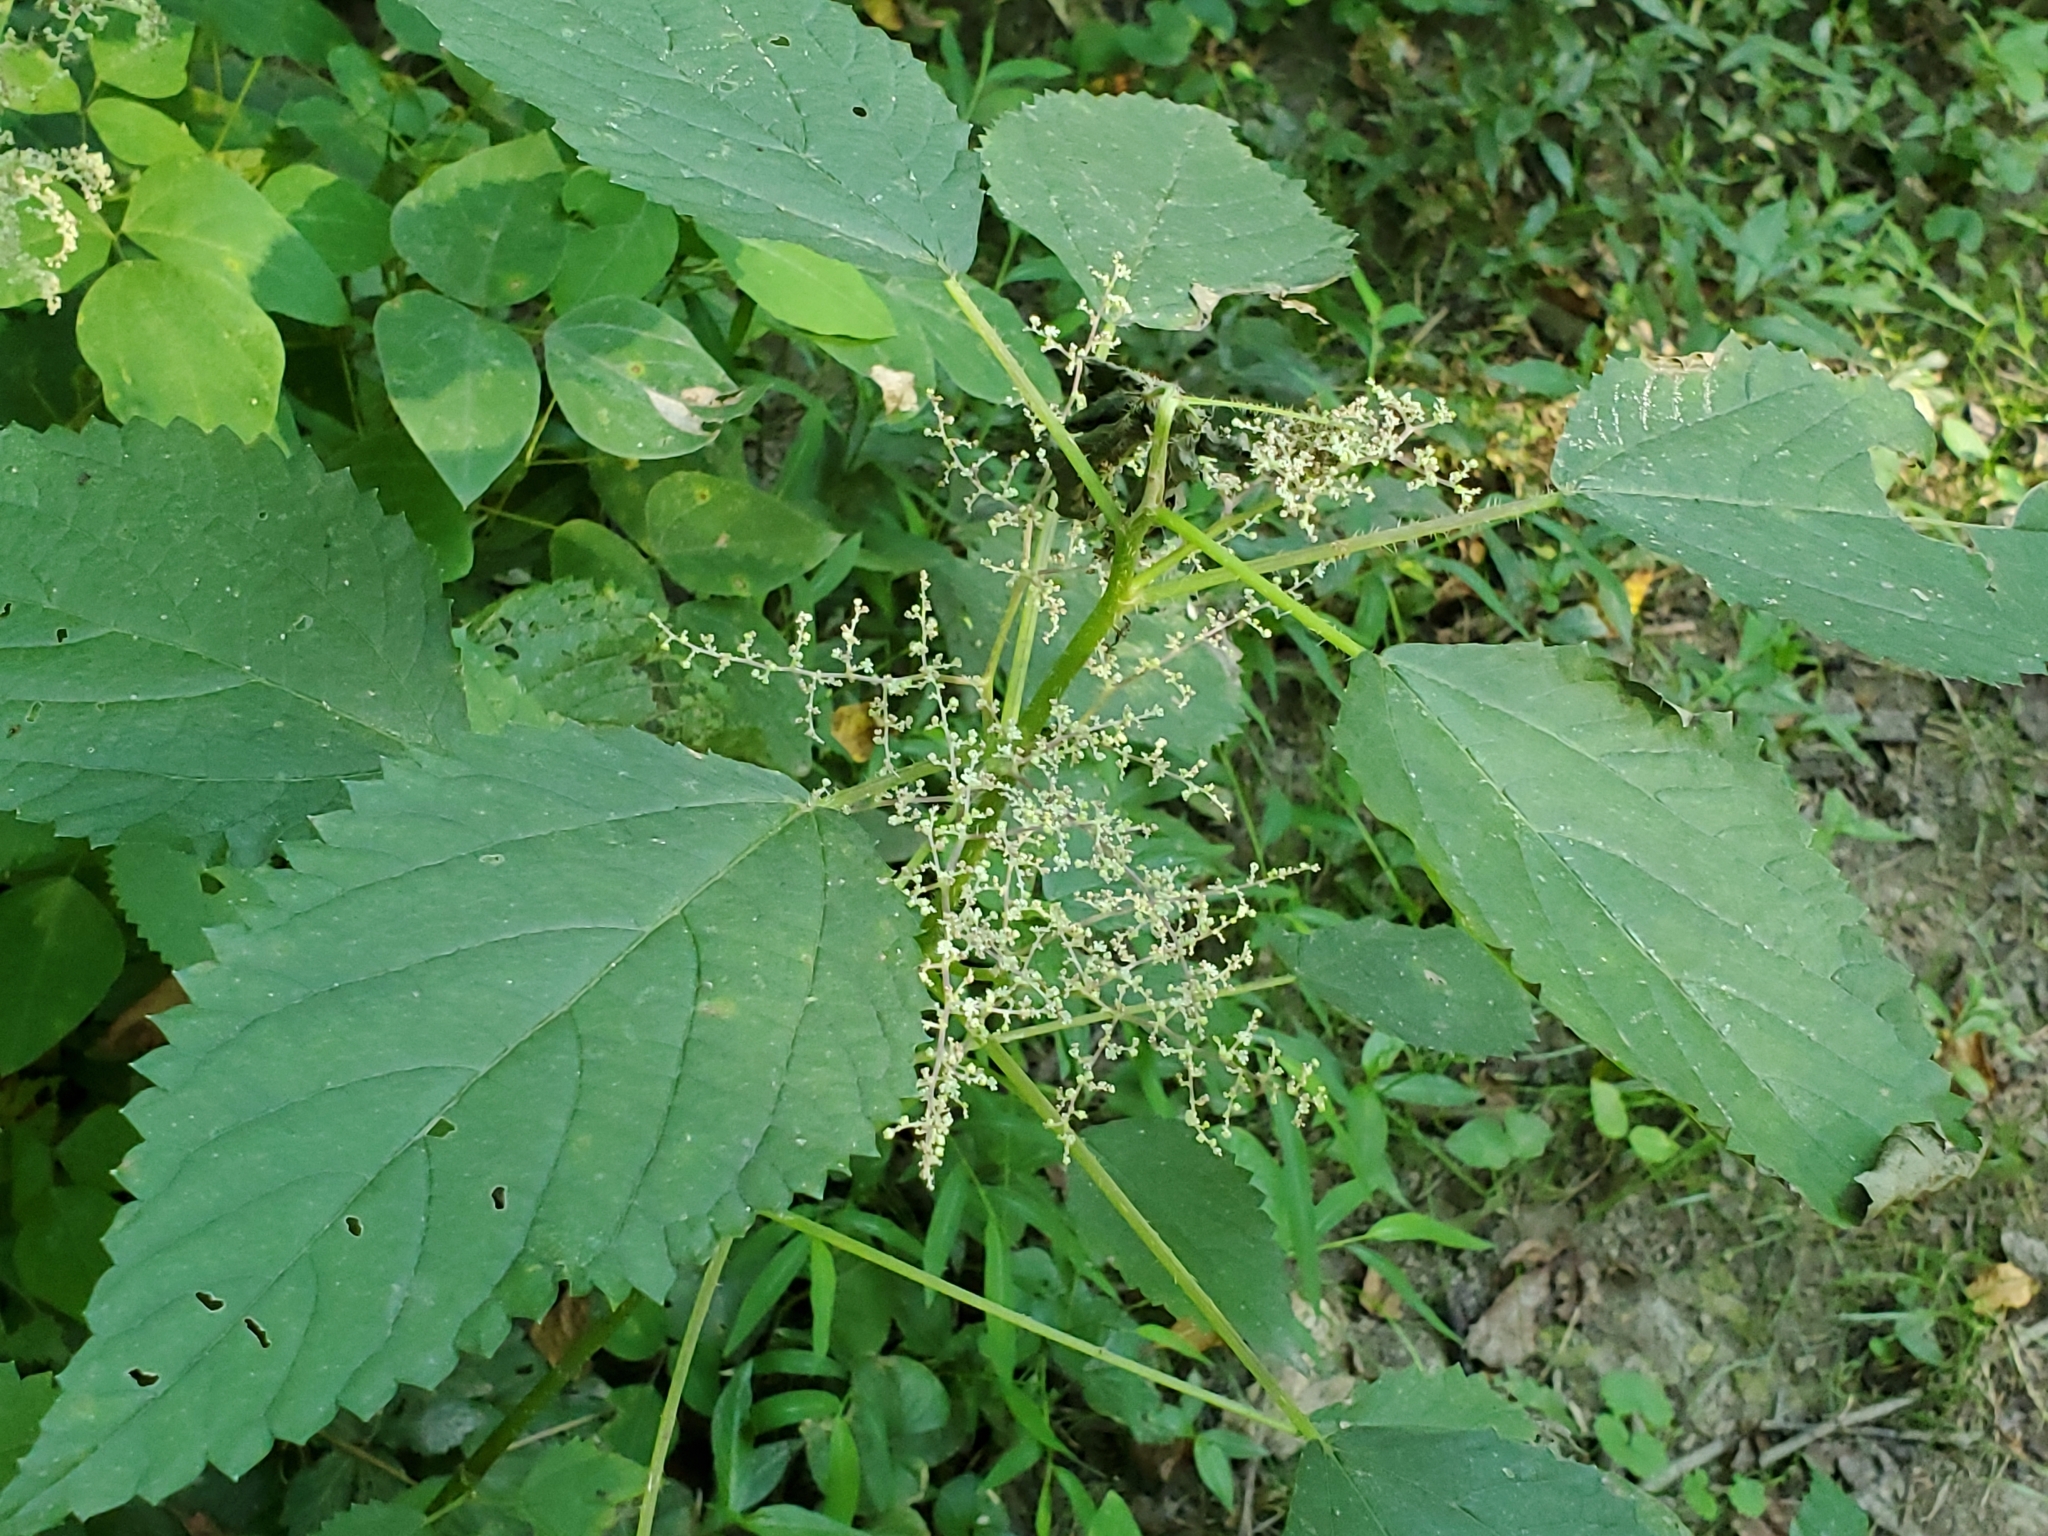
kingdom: Plantae
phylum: Tracheophyta
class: Magnoliopsida
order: Rosales
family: Urticaceae
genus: Laportea
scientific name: Laportea canadensis
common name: Canada nettle
